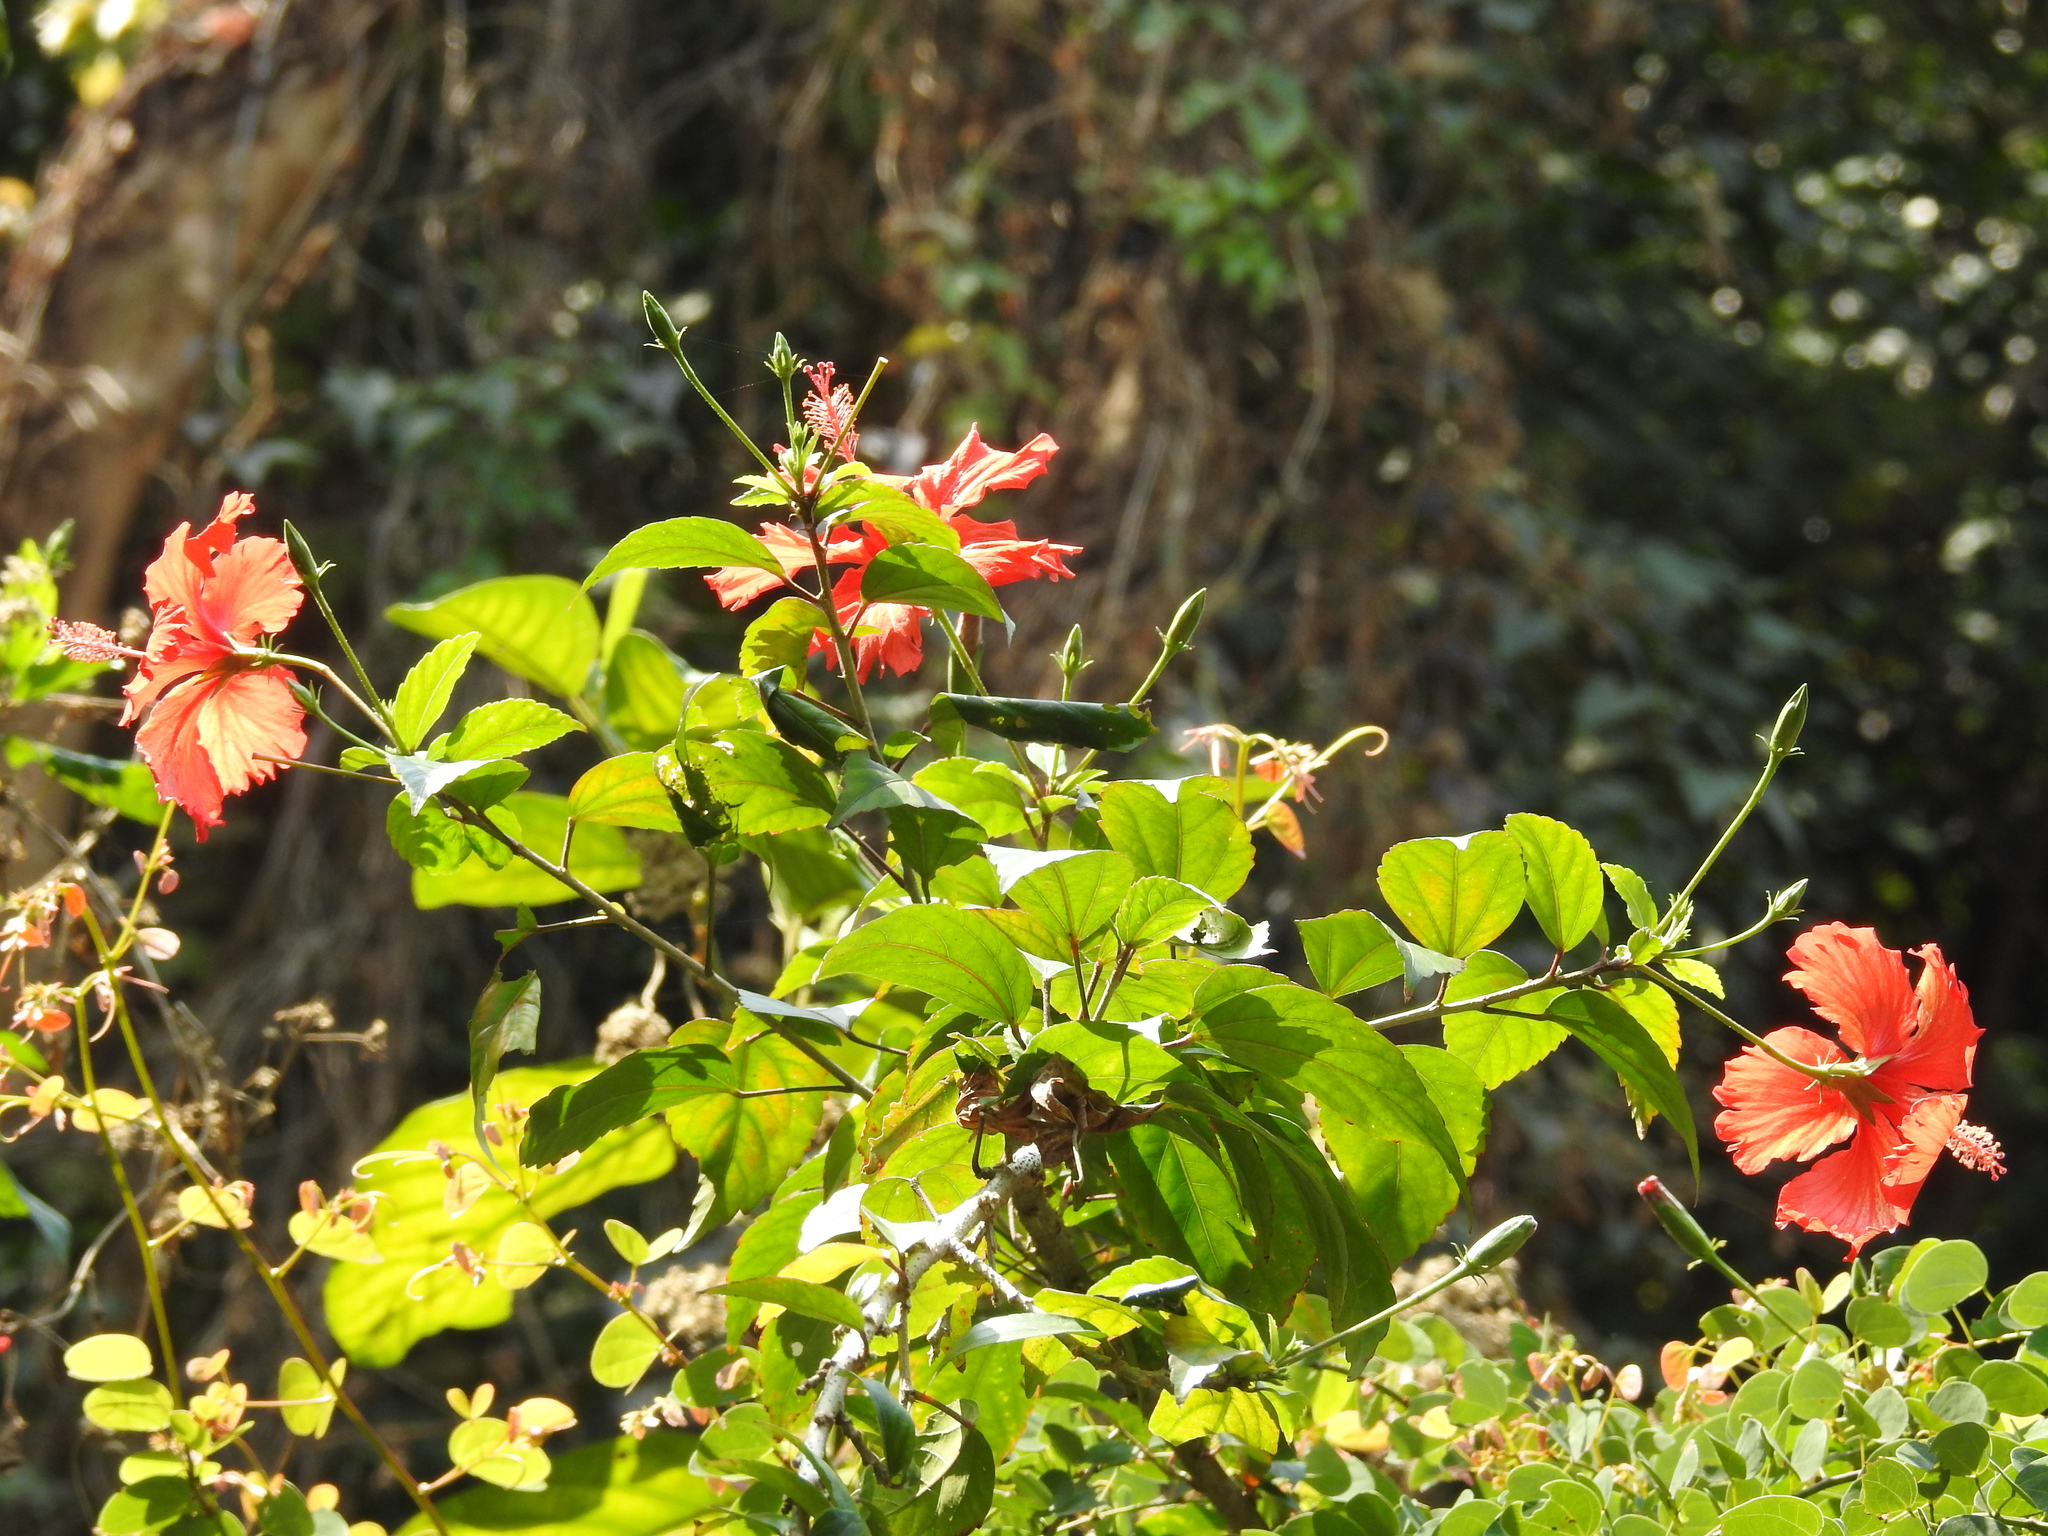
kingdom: Plantae
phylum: Tracheophyta
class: Magnoliopsida
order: Malvales
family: Malvaceae
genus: Hibiscus
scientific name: Hibiscus archeri
